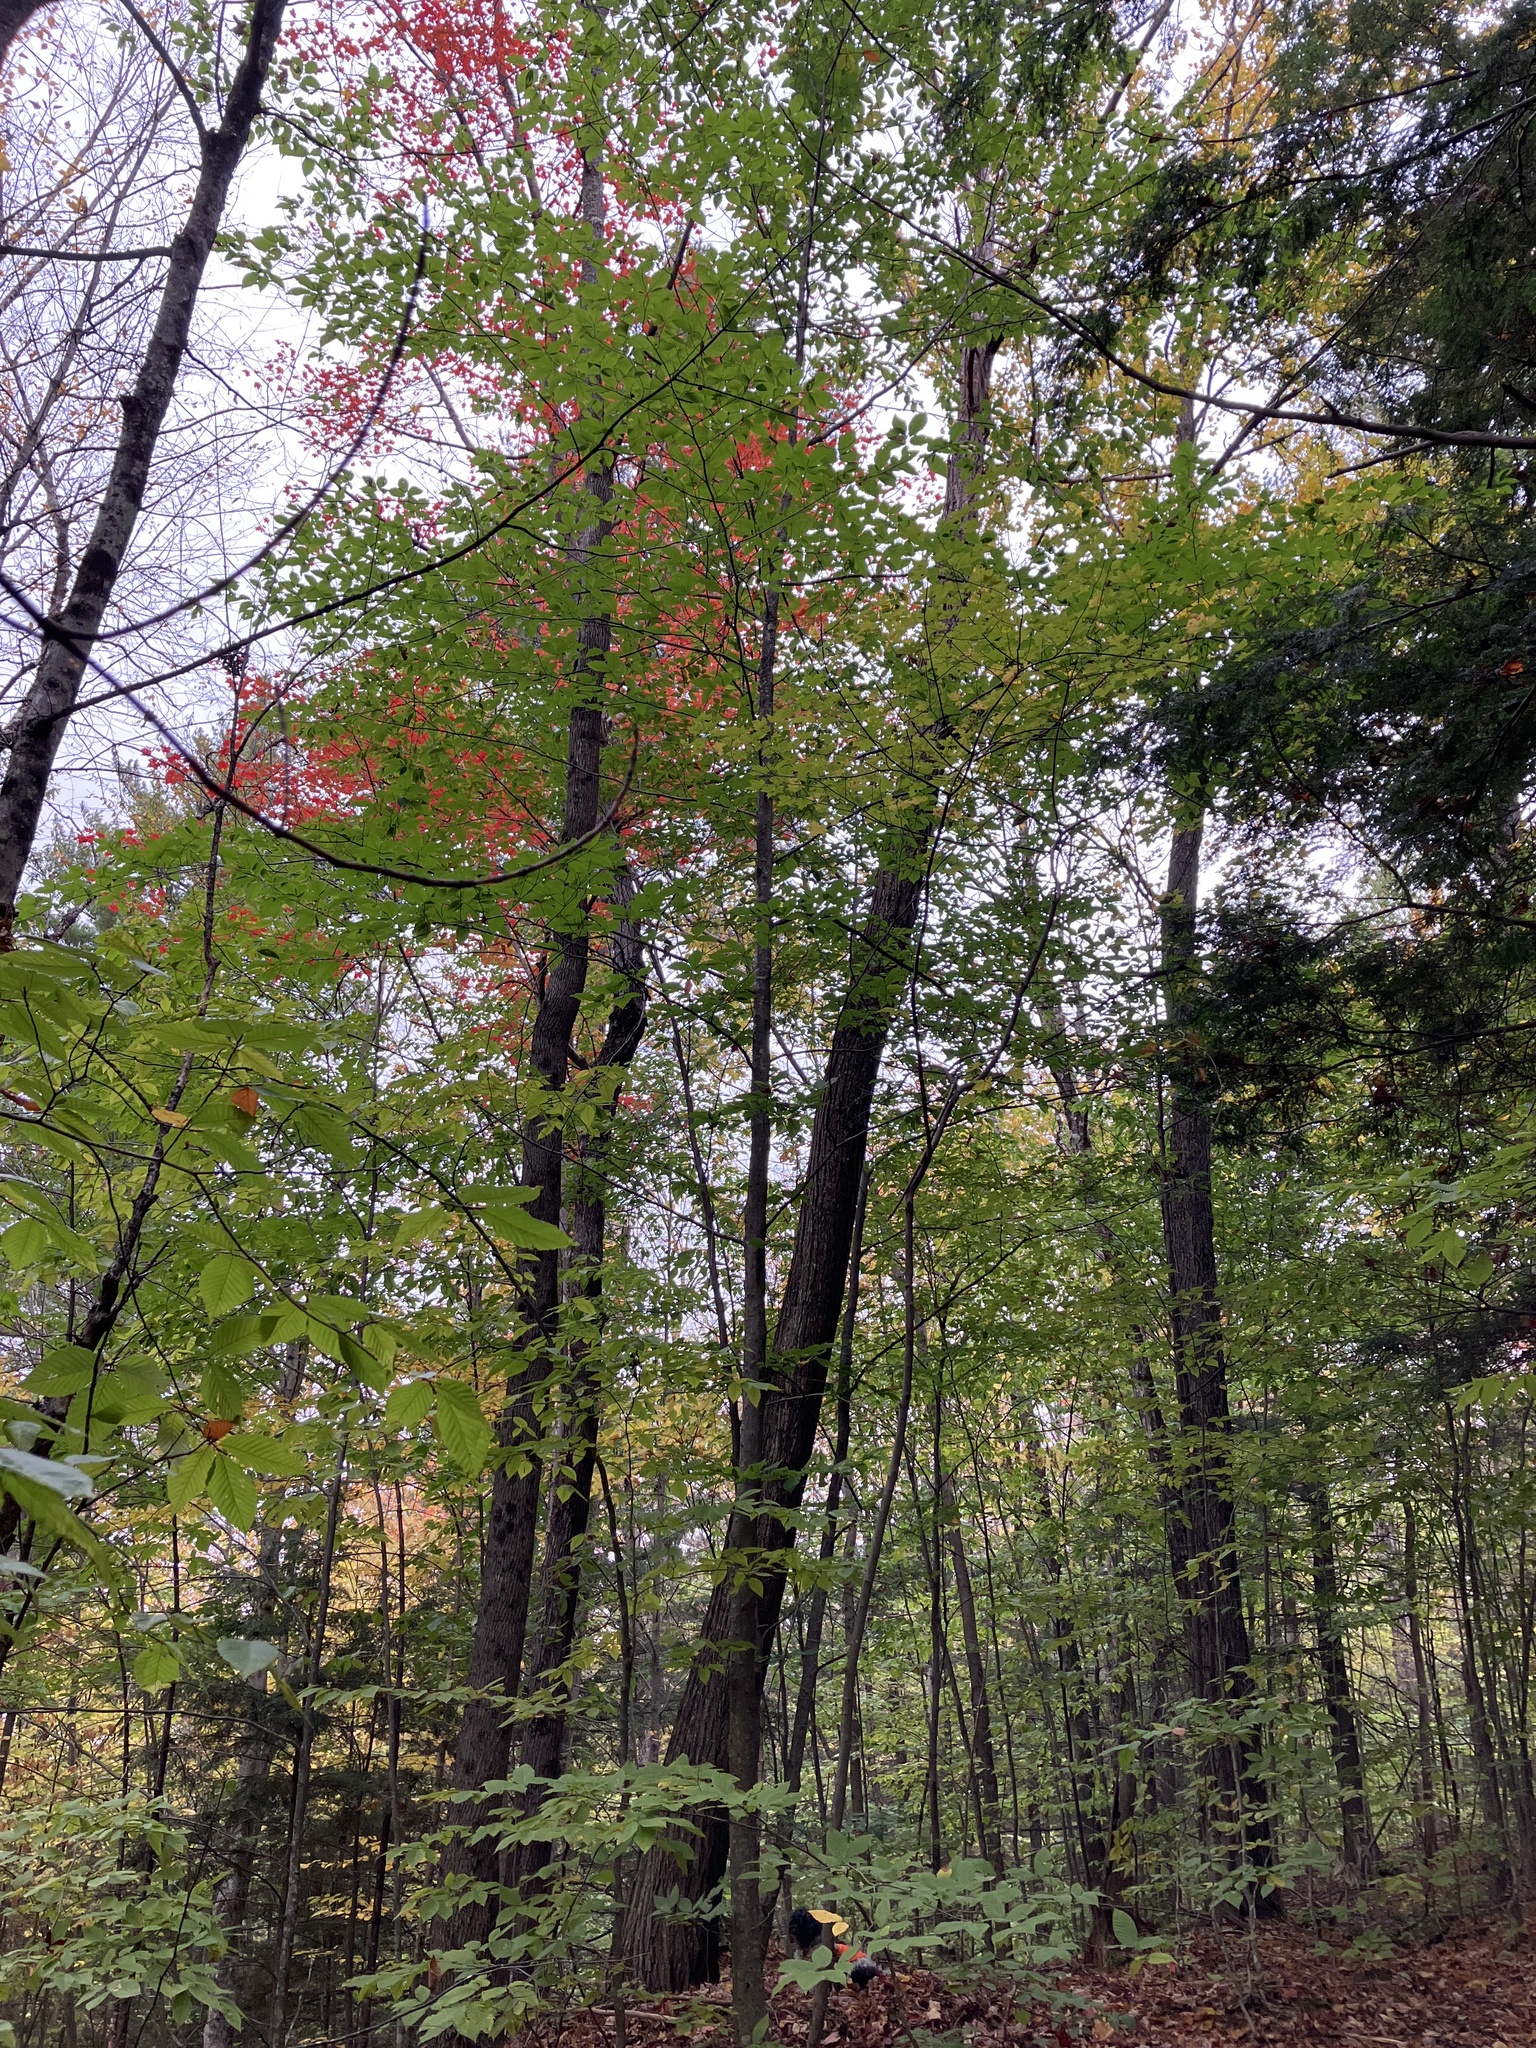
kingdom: Plantae
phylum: Tracheophyta
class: Magnoliopsida
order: Fagales
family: Fagaceae
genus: Castanea
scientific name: Castanea dentata
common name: American chestnut
